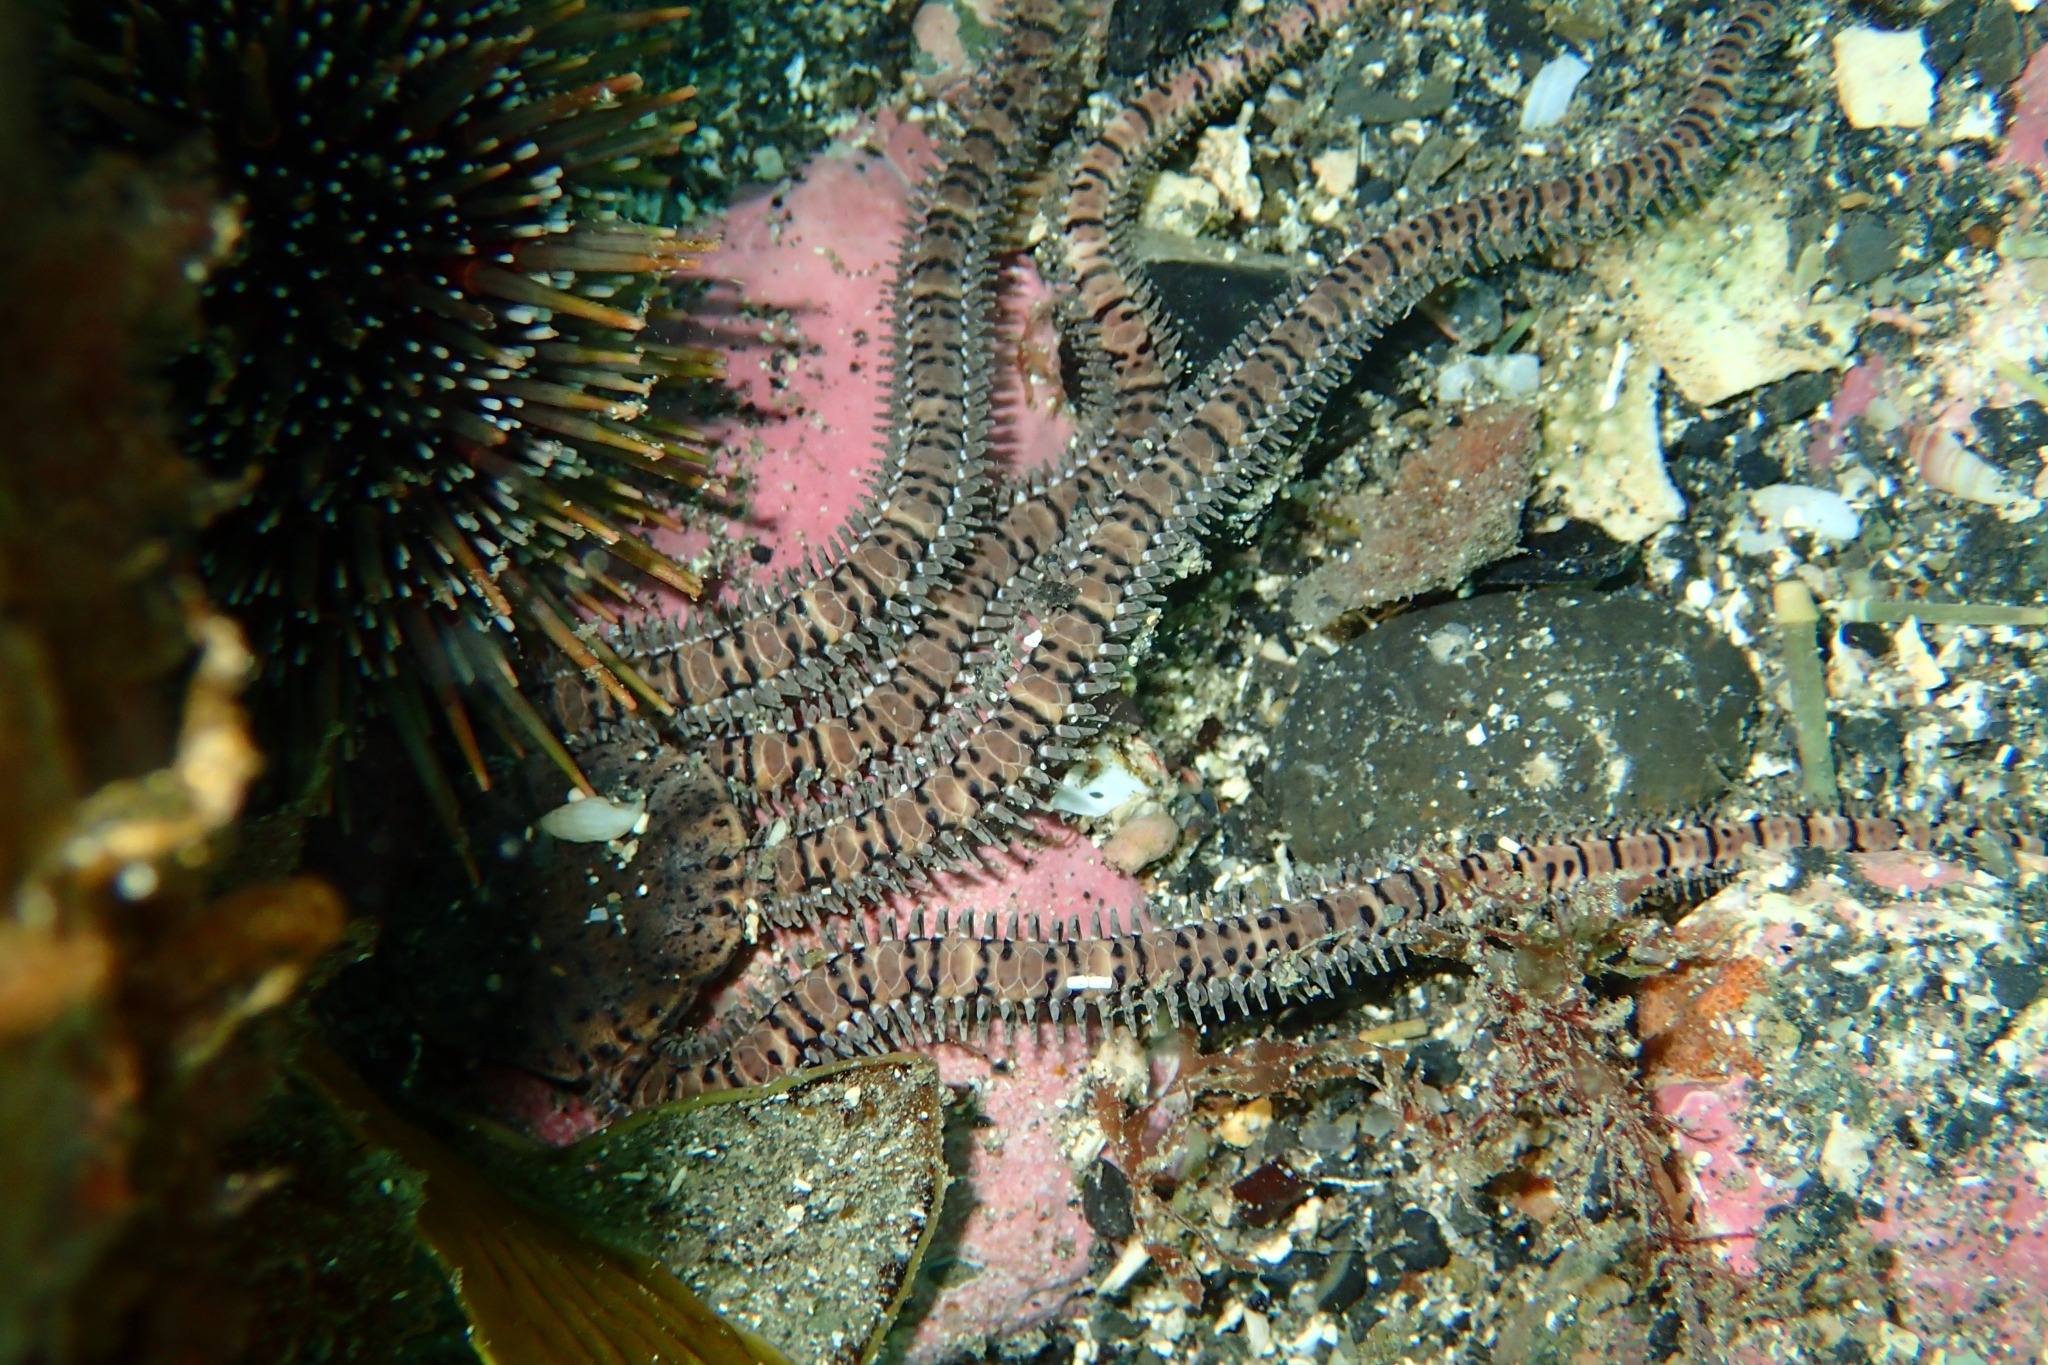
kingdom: Animalia
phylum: Echinodermata
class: Ophiuroidea
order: Amphilepidida
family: Ophionereididae
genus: Ophionereis
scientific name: Ophionereis fasciata
